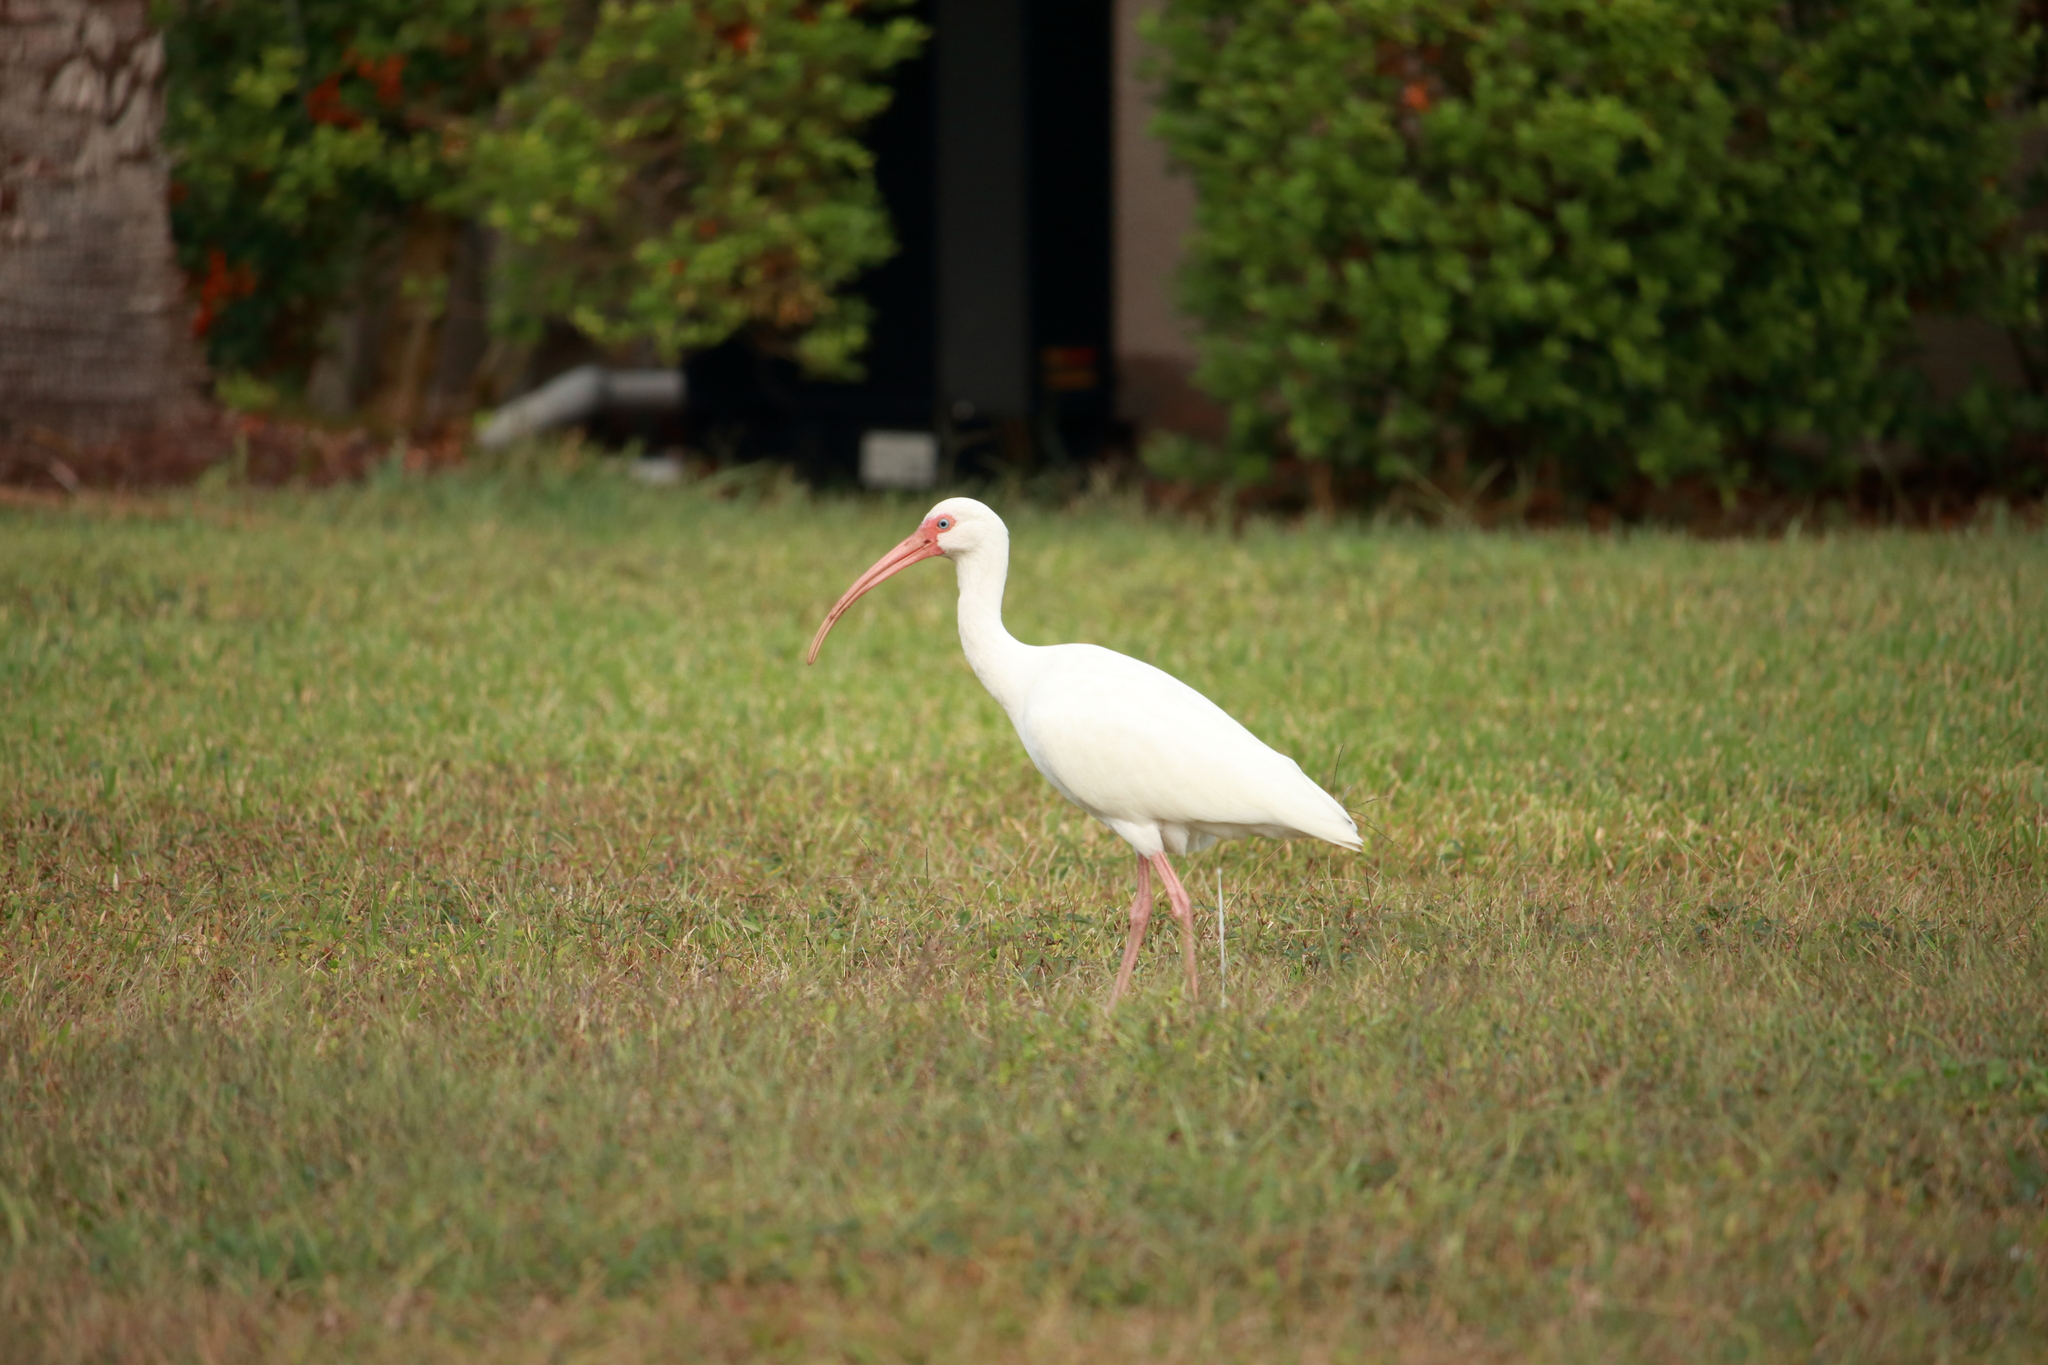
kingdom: Animalia
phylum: Chordata
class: Aves
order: Pelecaniformes
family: Threskiornithidae
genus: Eudocimus
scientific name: Eudocimus albus
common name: White ibis
